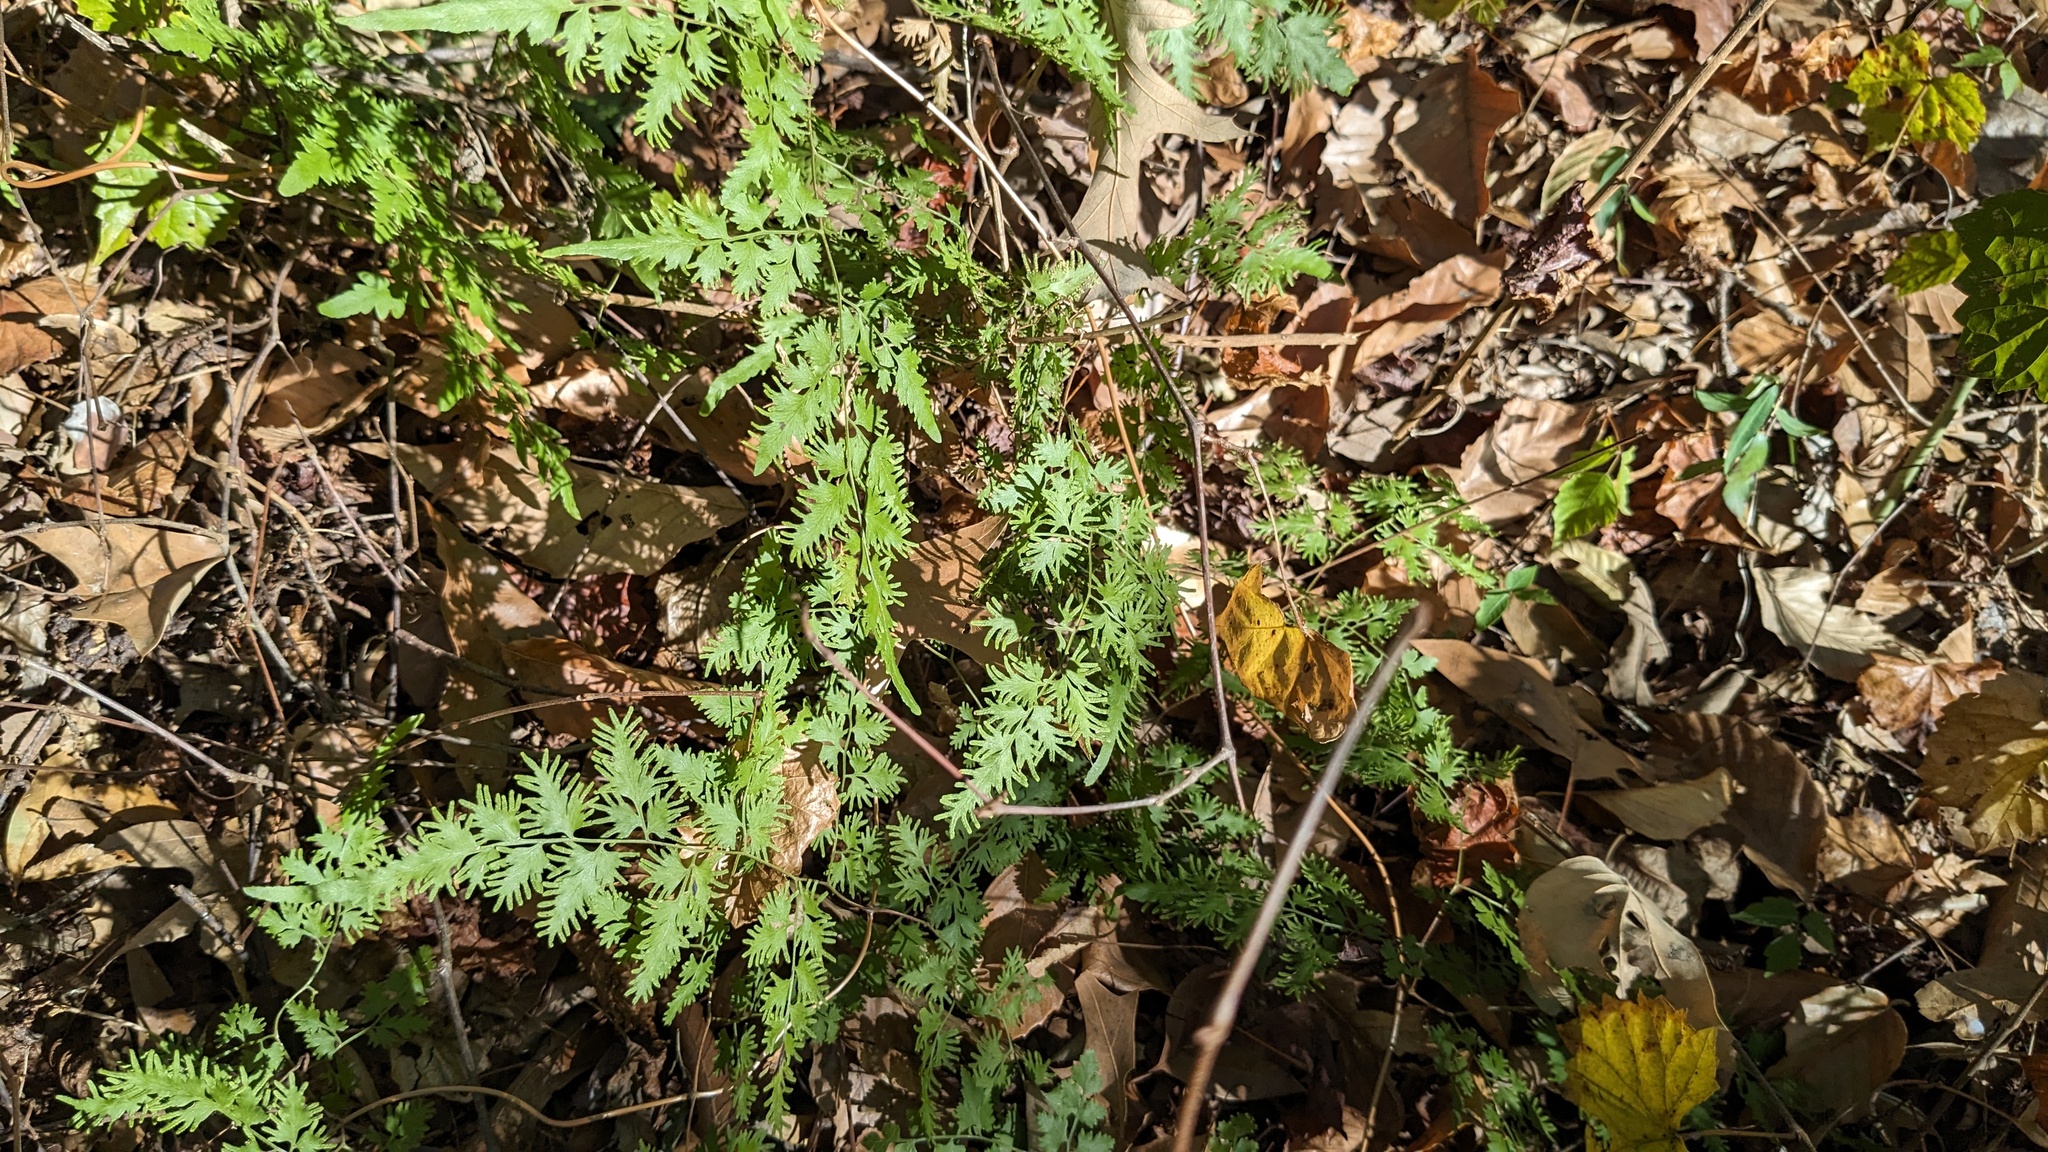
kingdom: Plantae
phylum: Tracheophyta
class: Polypodiopsida
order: Schizaeales
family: Lygodiaceae
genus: Lygodium
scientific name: Lygodium japonicum
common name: Japanese climbing fern
